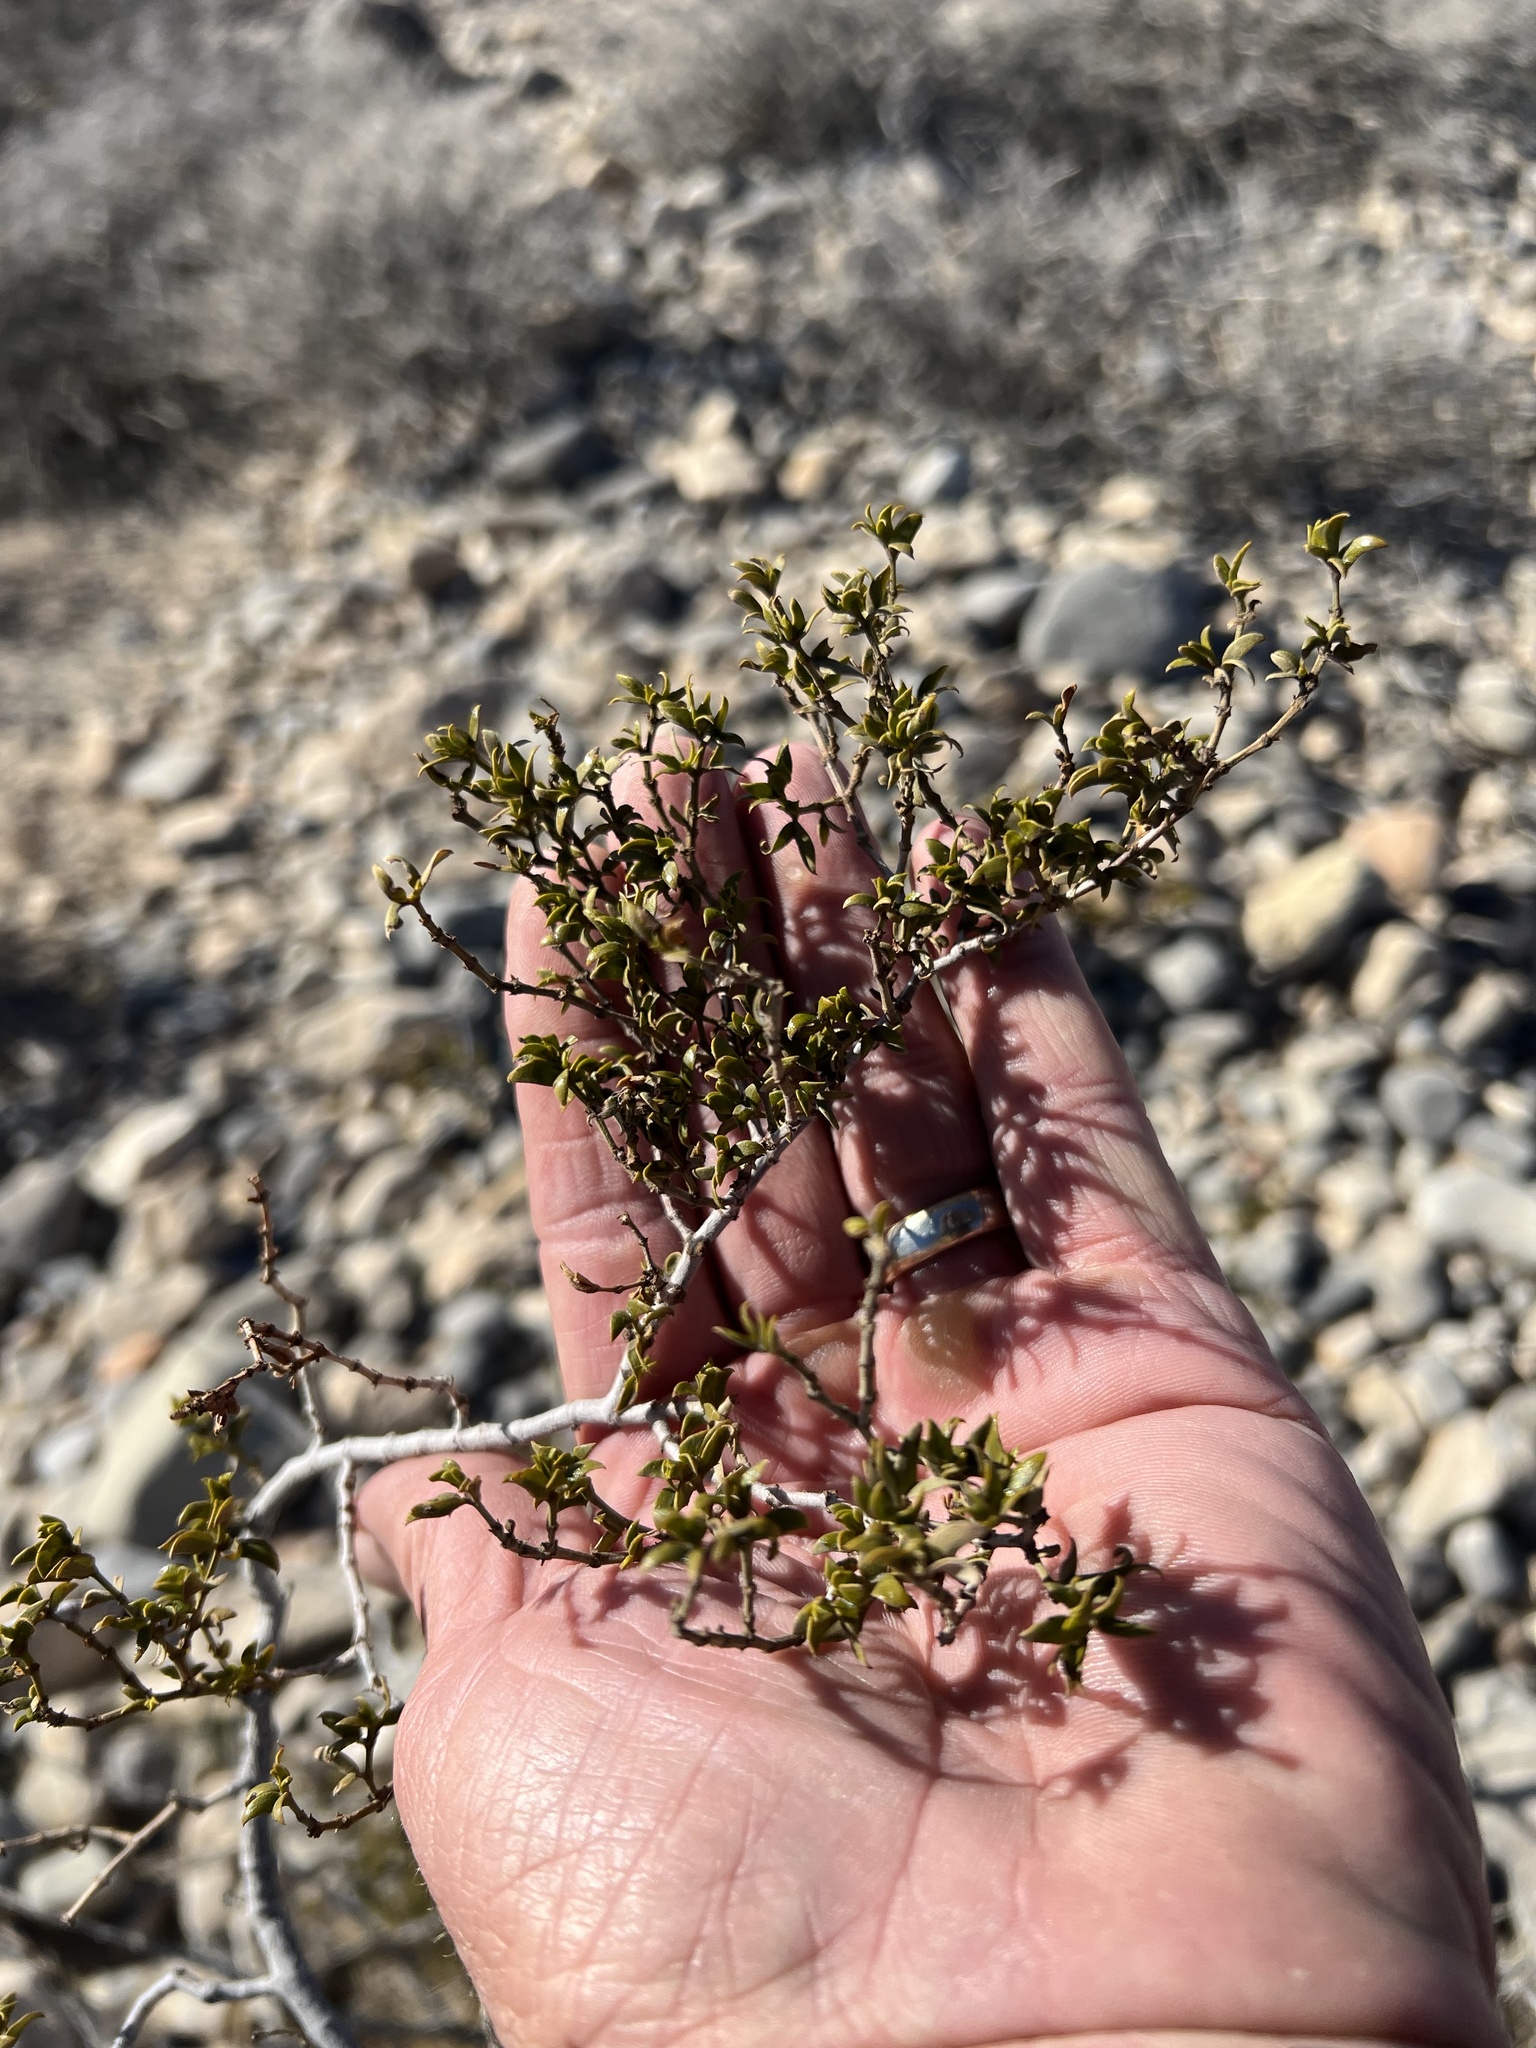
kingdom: Plantae
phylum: Tracheophyta
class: Magnoliopsida
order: Zygophyllales
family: Zygophyllaceae
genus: Larrea
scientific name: Larrea tridentata
